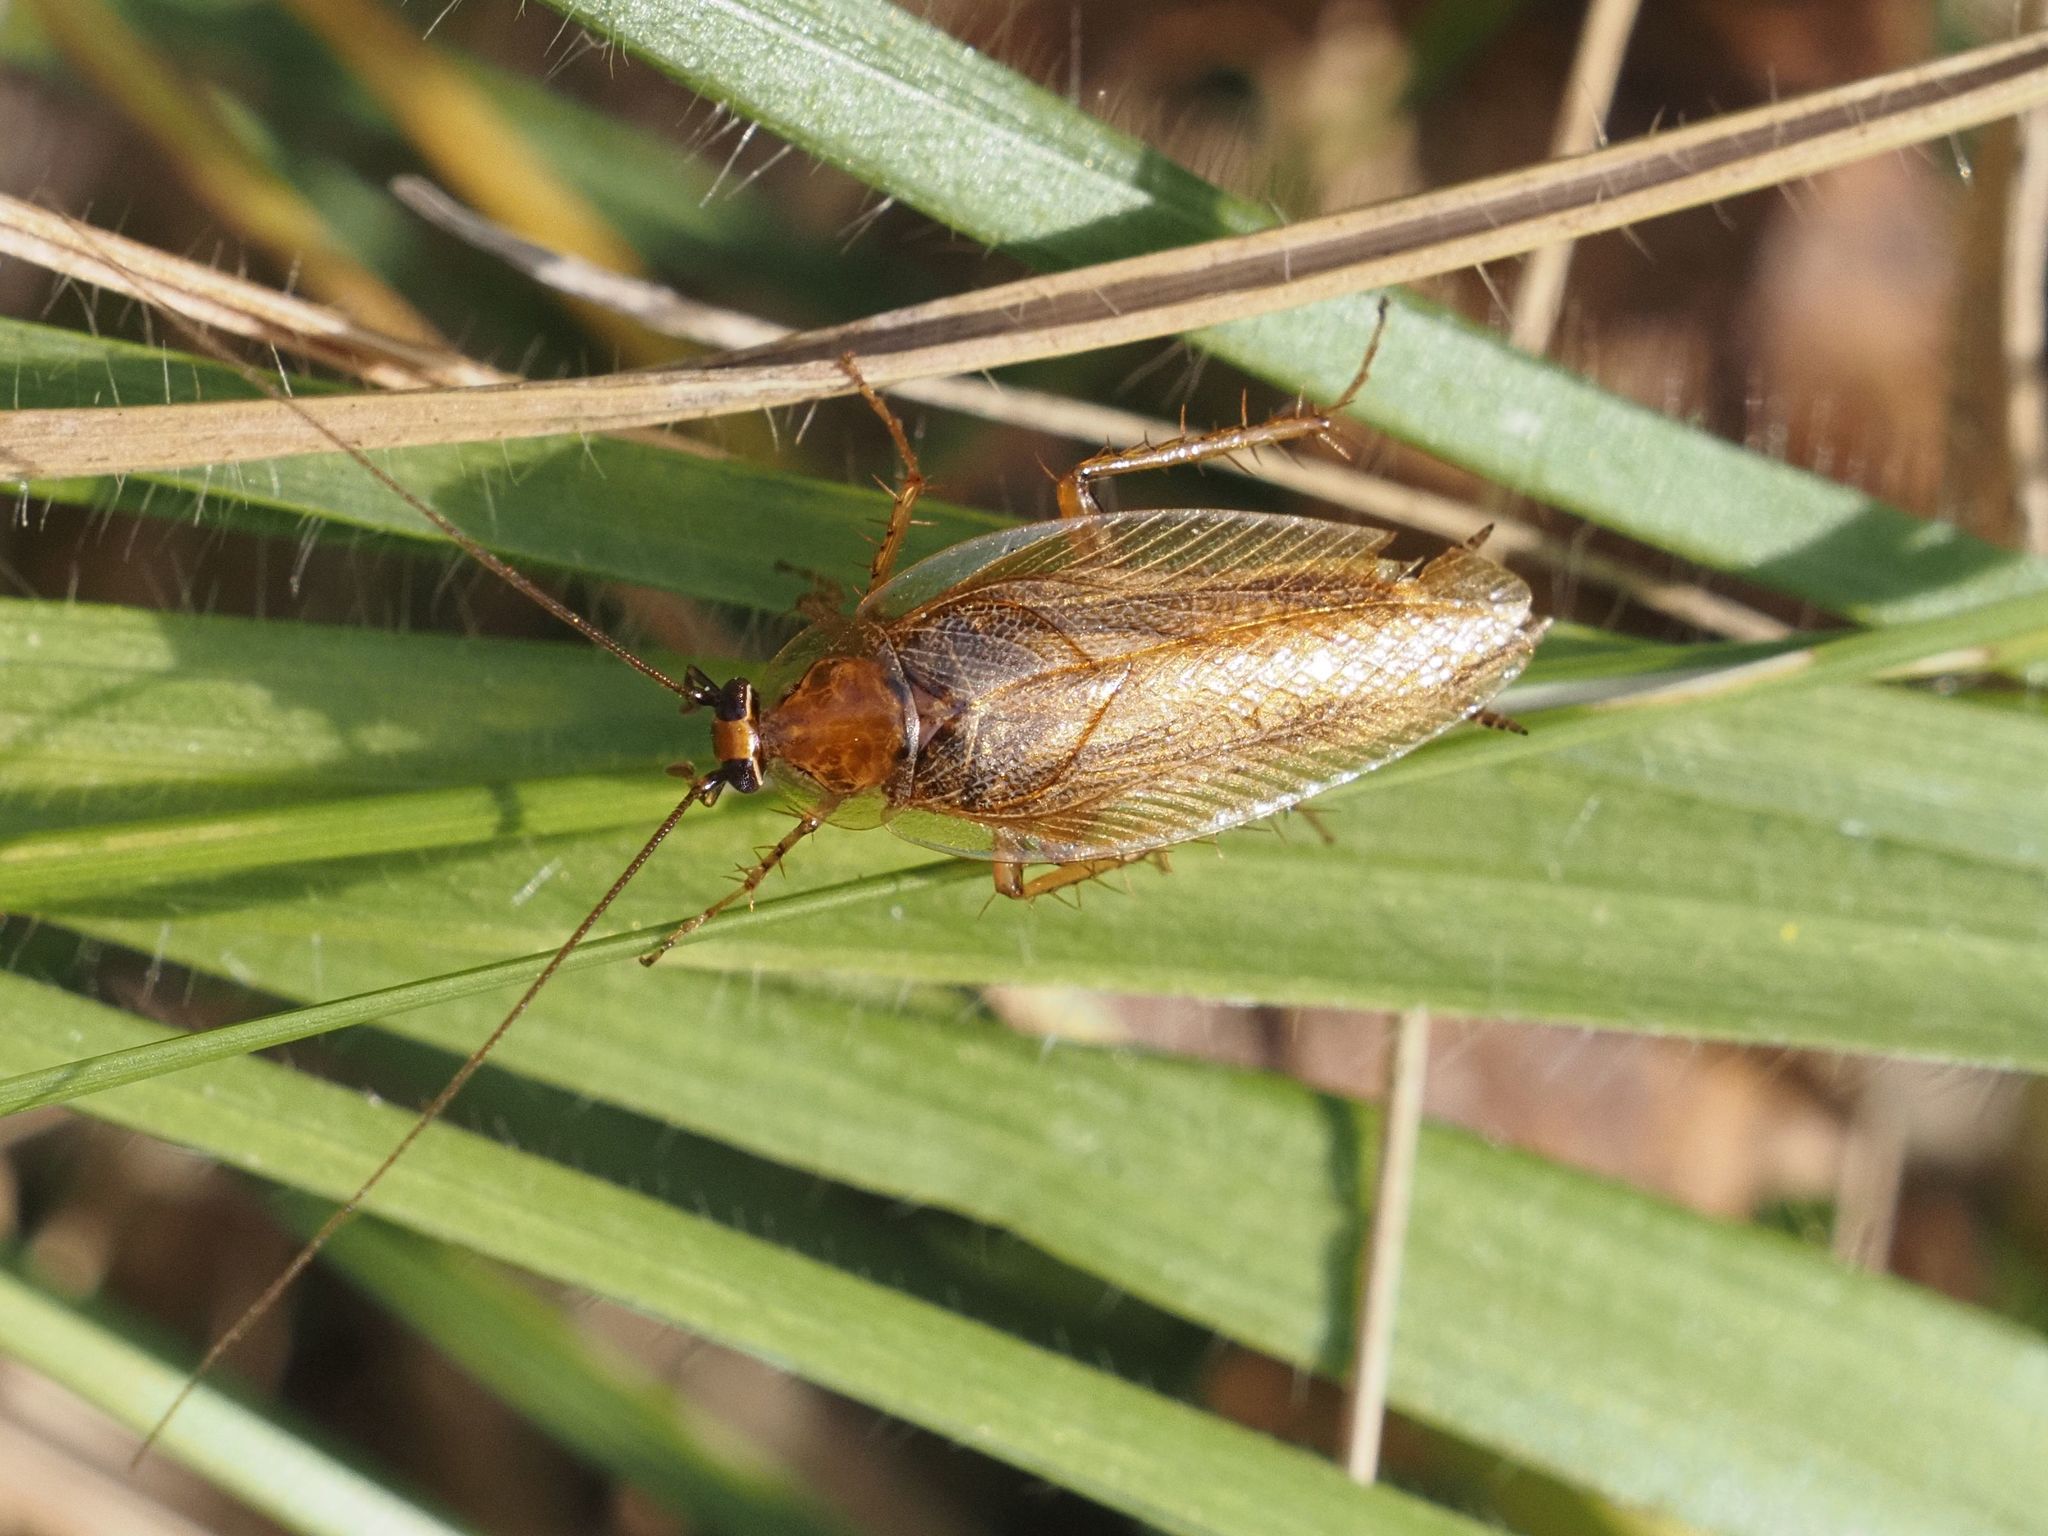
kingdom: Animalia
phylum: Arthropoda
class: Insecta
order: Blattodea
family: Ectobiidae
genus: Ectobius
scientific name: Ectobius vittiventris
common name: Garden cockroach
